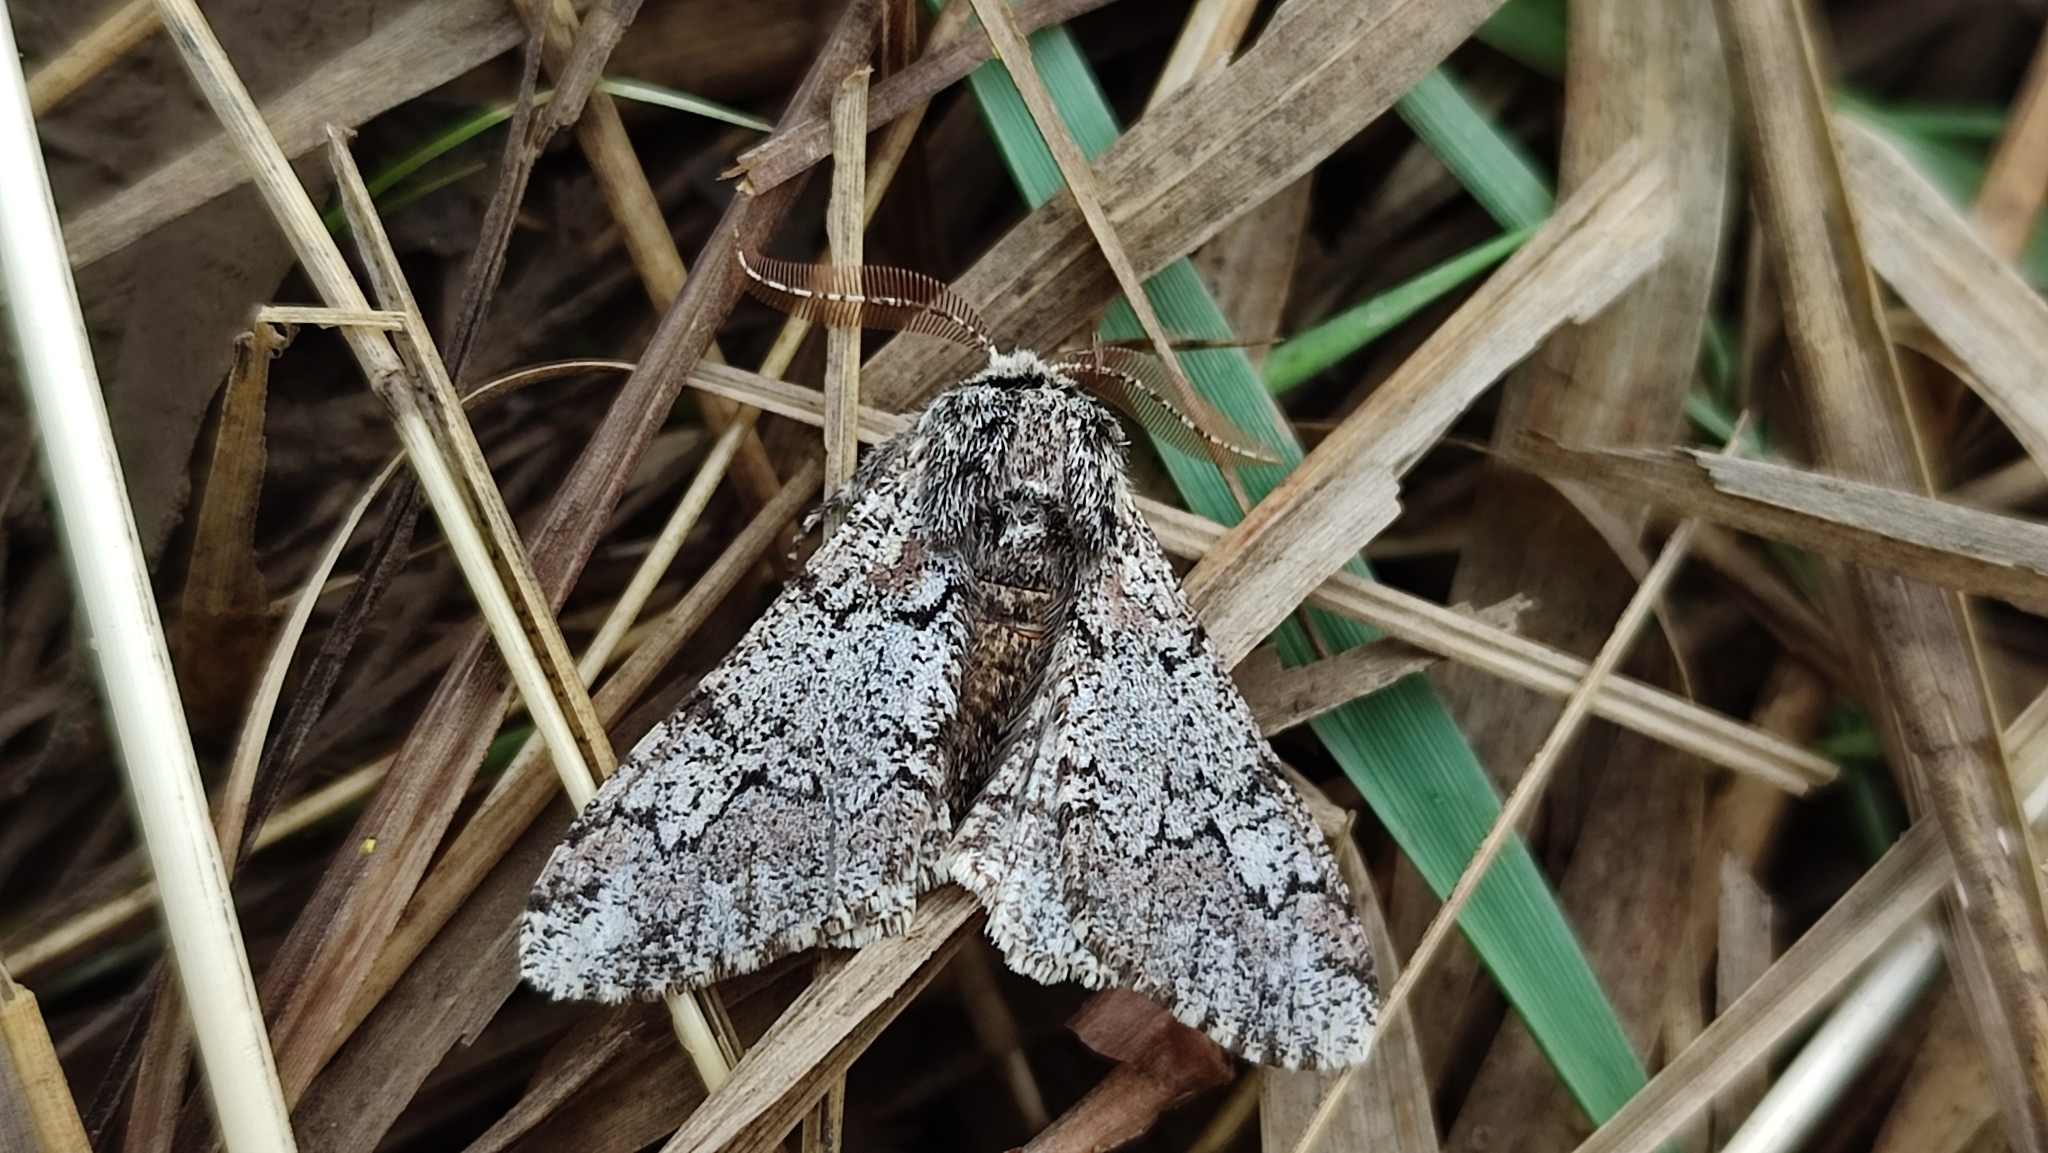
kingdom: Animalia
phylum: Arthropoda
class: Insecta
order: Lepidoptera
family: Geometridae
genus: Biston
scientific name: Biston strataria
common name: Oak beauty
